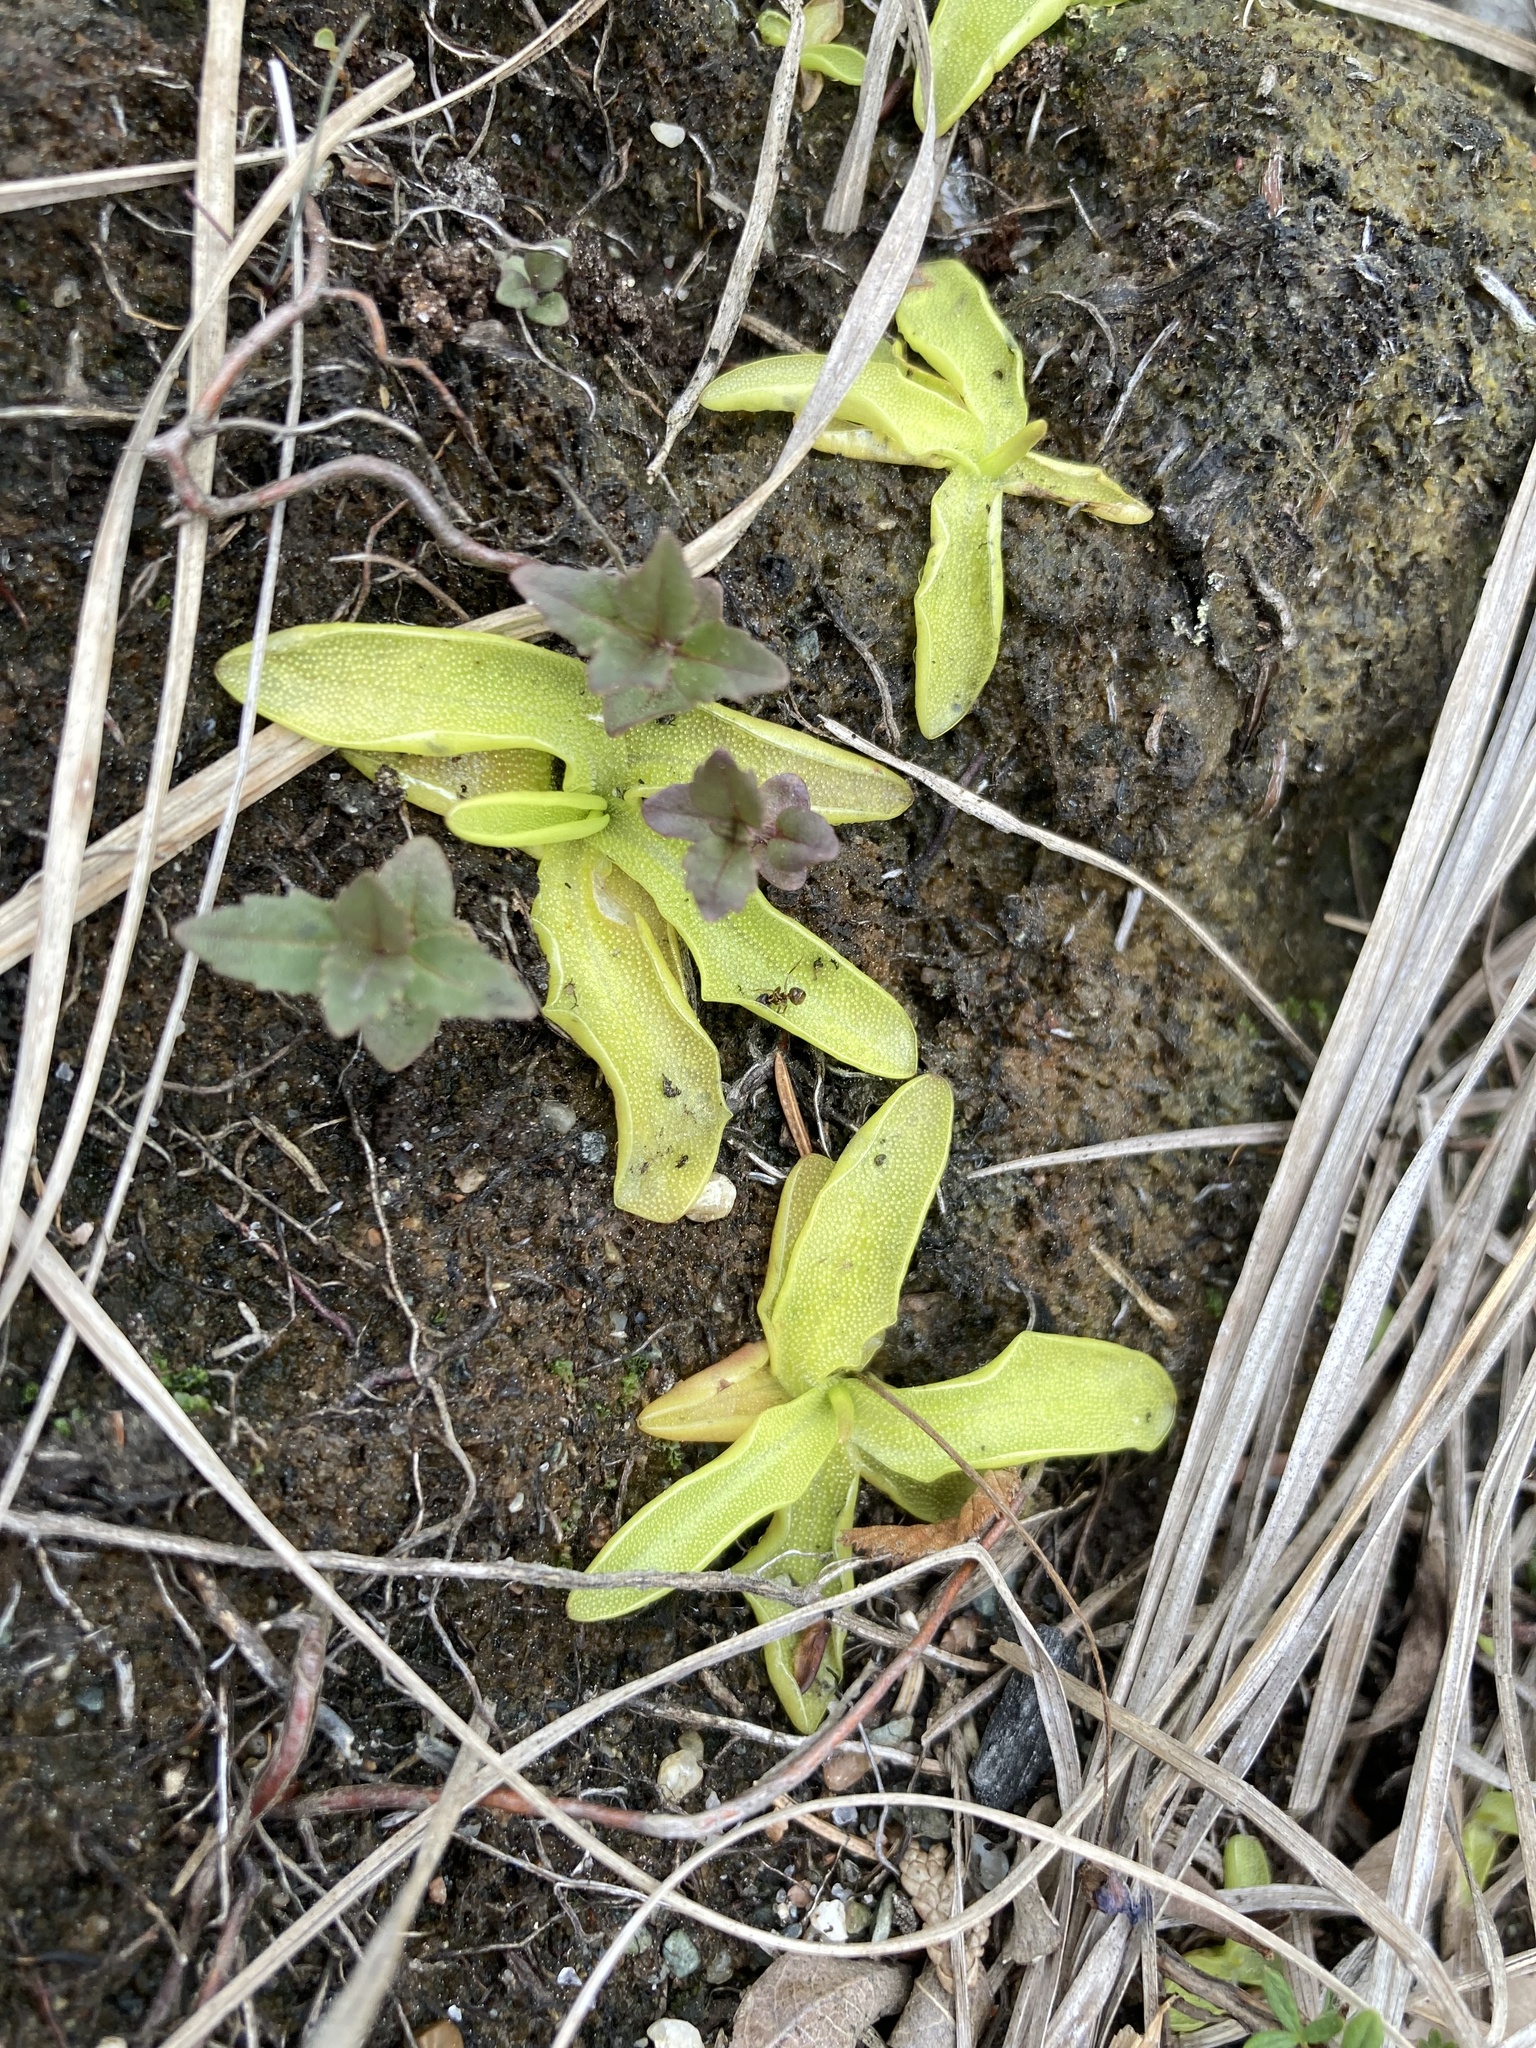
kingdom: Plantae
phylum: Tracheophyta
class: Magnoliopsida
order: Lamiales
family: Lentibulariaceae
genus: Pinguicula
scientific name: Pinguicula vulgaris
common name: Common butterwort
